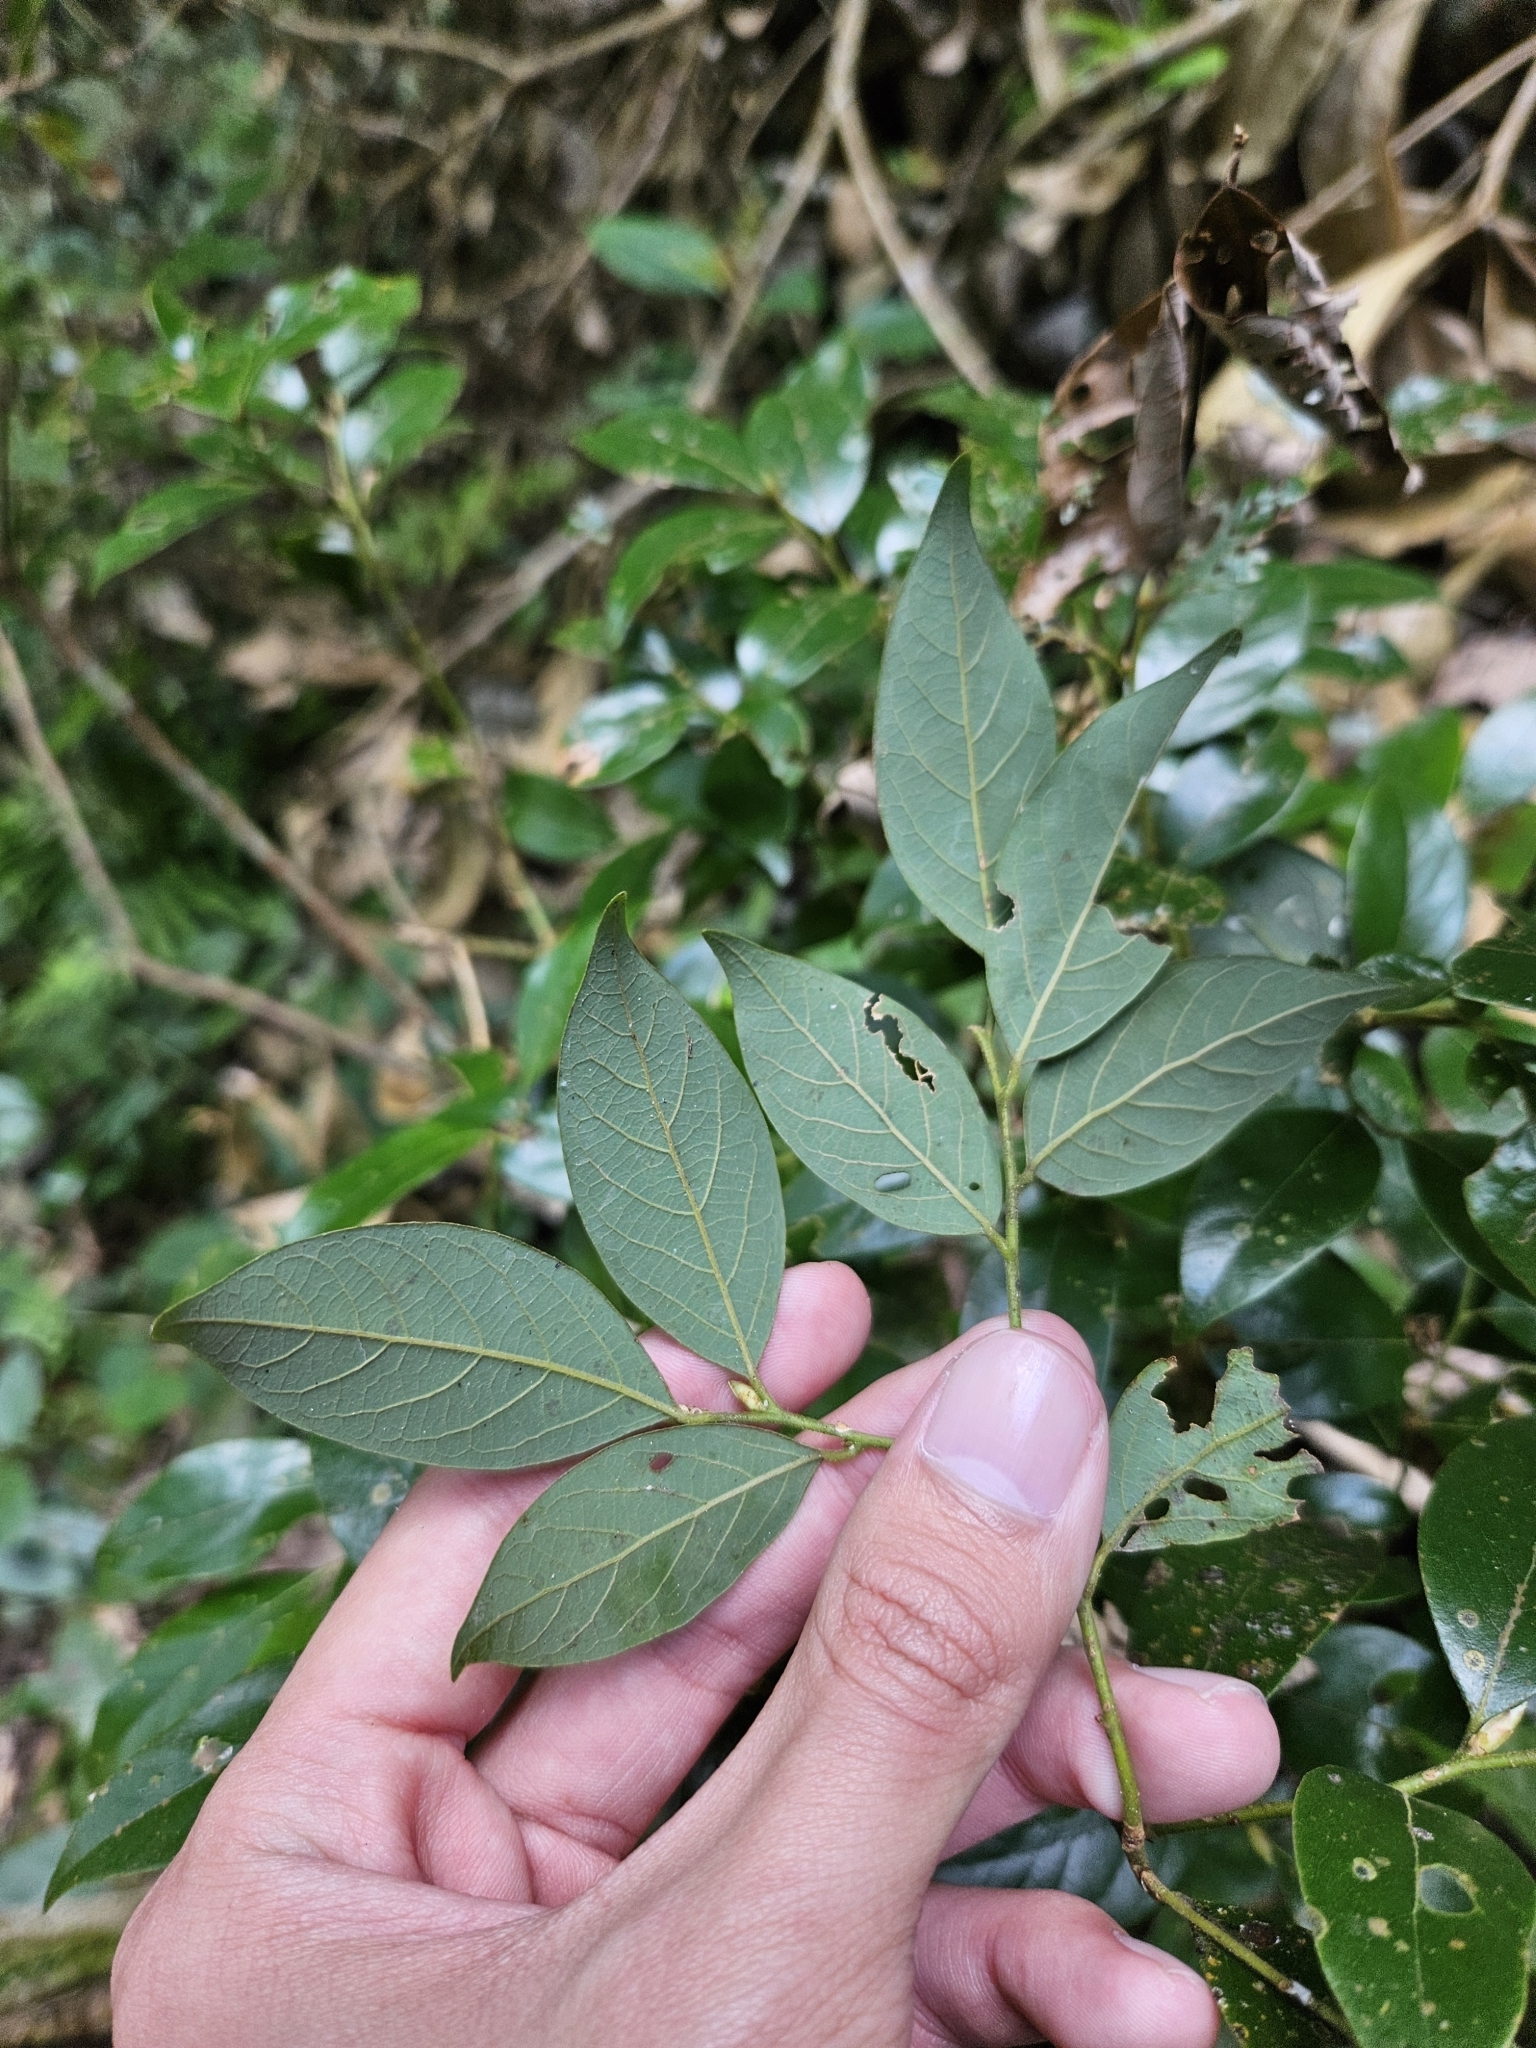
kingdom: Plantae
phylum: Tracheophyta
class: Magnoliopsida
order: Laurales
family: Lauraceae
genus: Lindera
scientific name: Lindera communis
